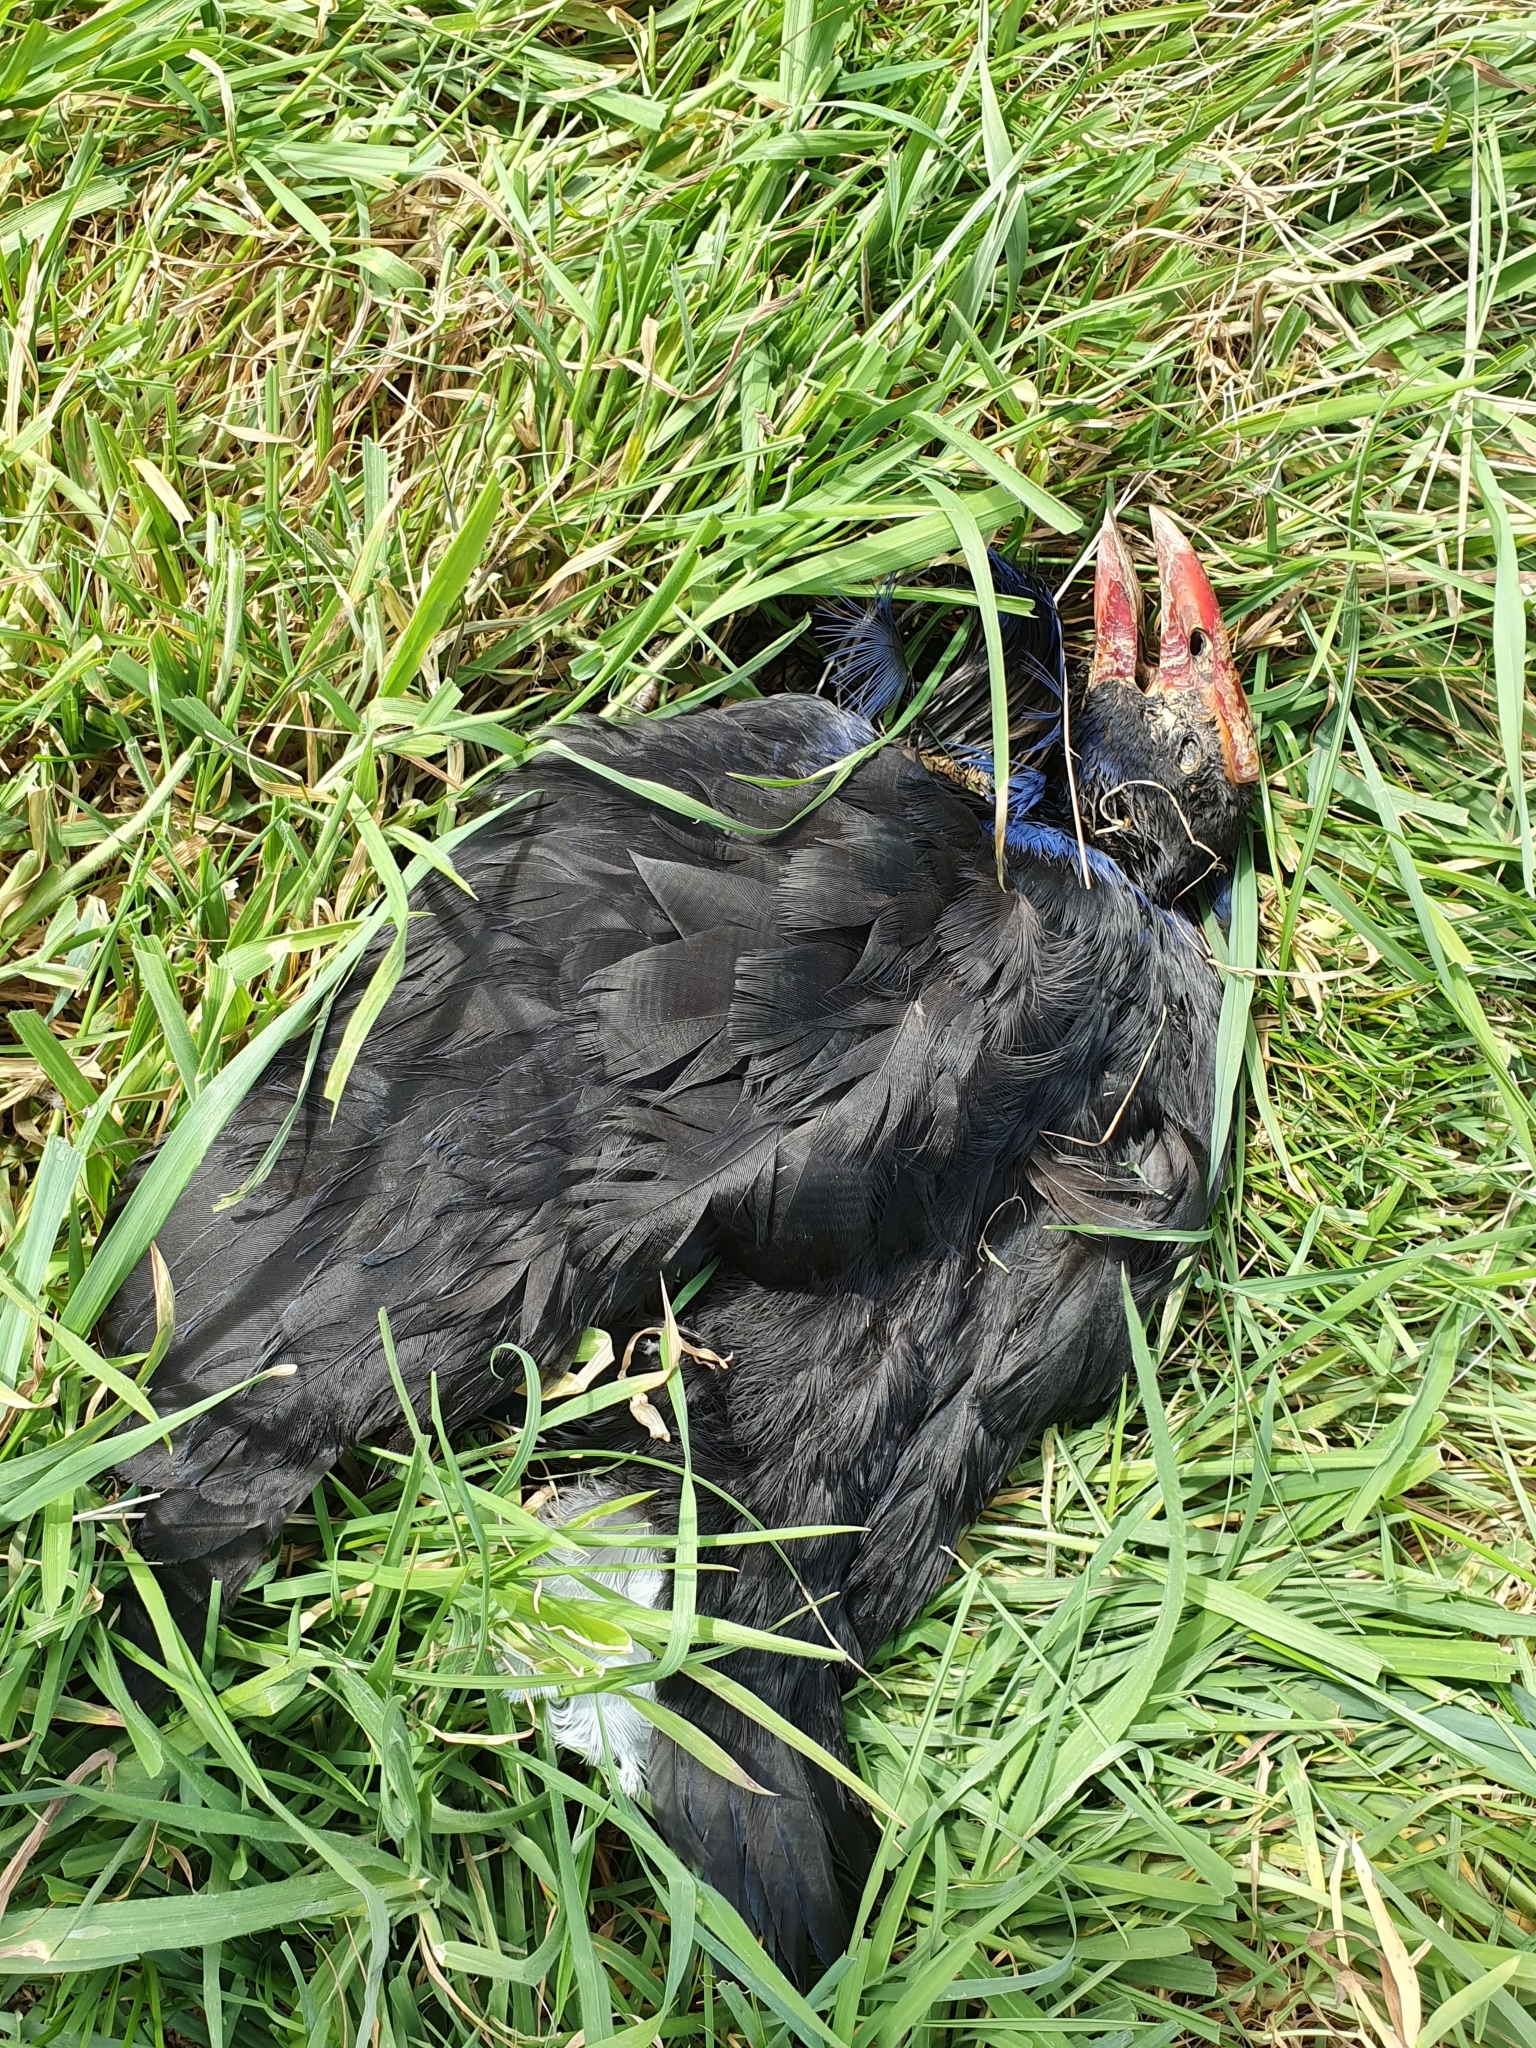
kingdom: Animalia
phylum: Chordata
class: Aves
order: Gruiformes
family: Rallidae
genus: Porphyrio
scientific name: Porphyrio melanotus
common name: Australasian swamphen
